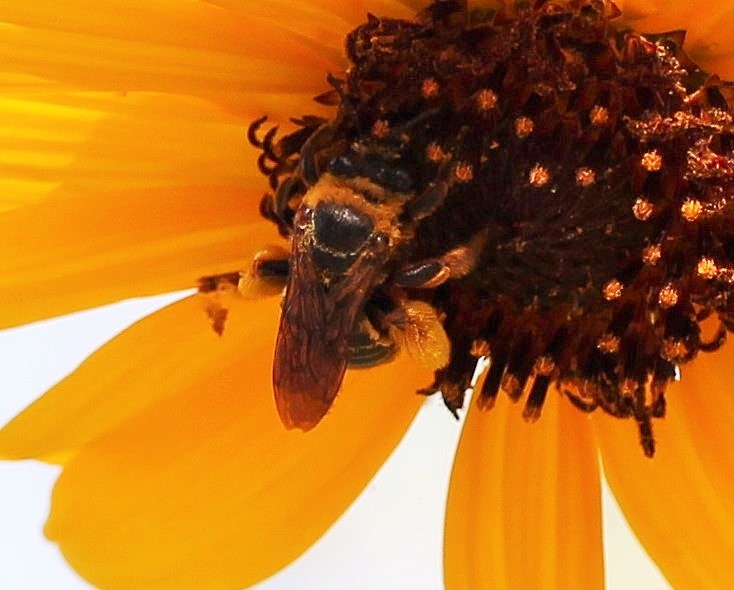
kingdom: Animalia
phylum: Arthropoda
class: Insecta
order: Hymenoptera
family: Apidae
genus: Svastra
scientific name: Svastra obliqua
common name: Oblique longhorn
